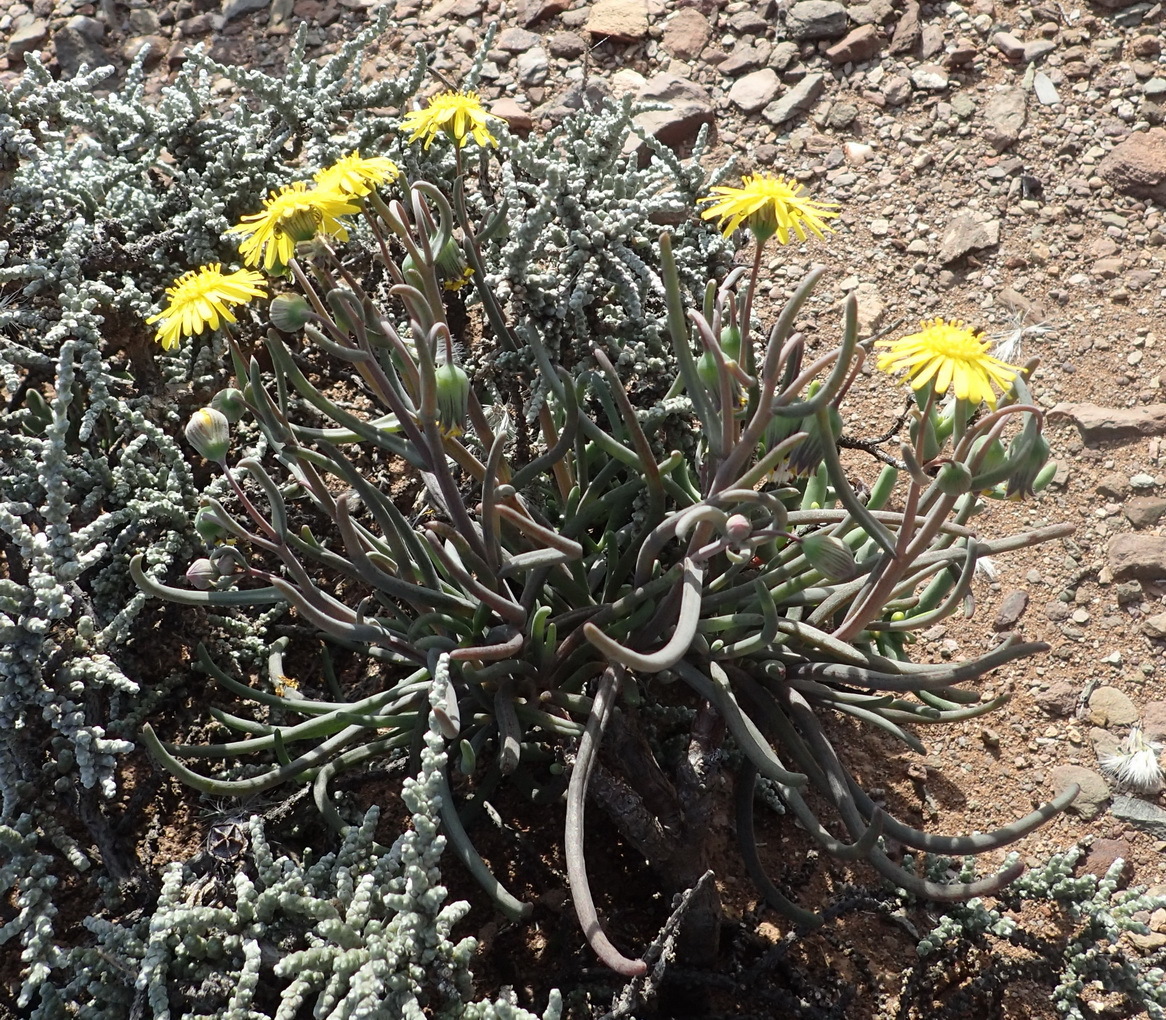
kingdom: Plantae
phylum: Tracheophyta
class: Magnoliopsida
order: Asterales
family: Asteraceae
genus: Crassothonna
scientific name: Crassothonna protecta
